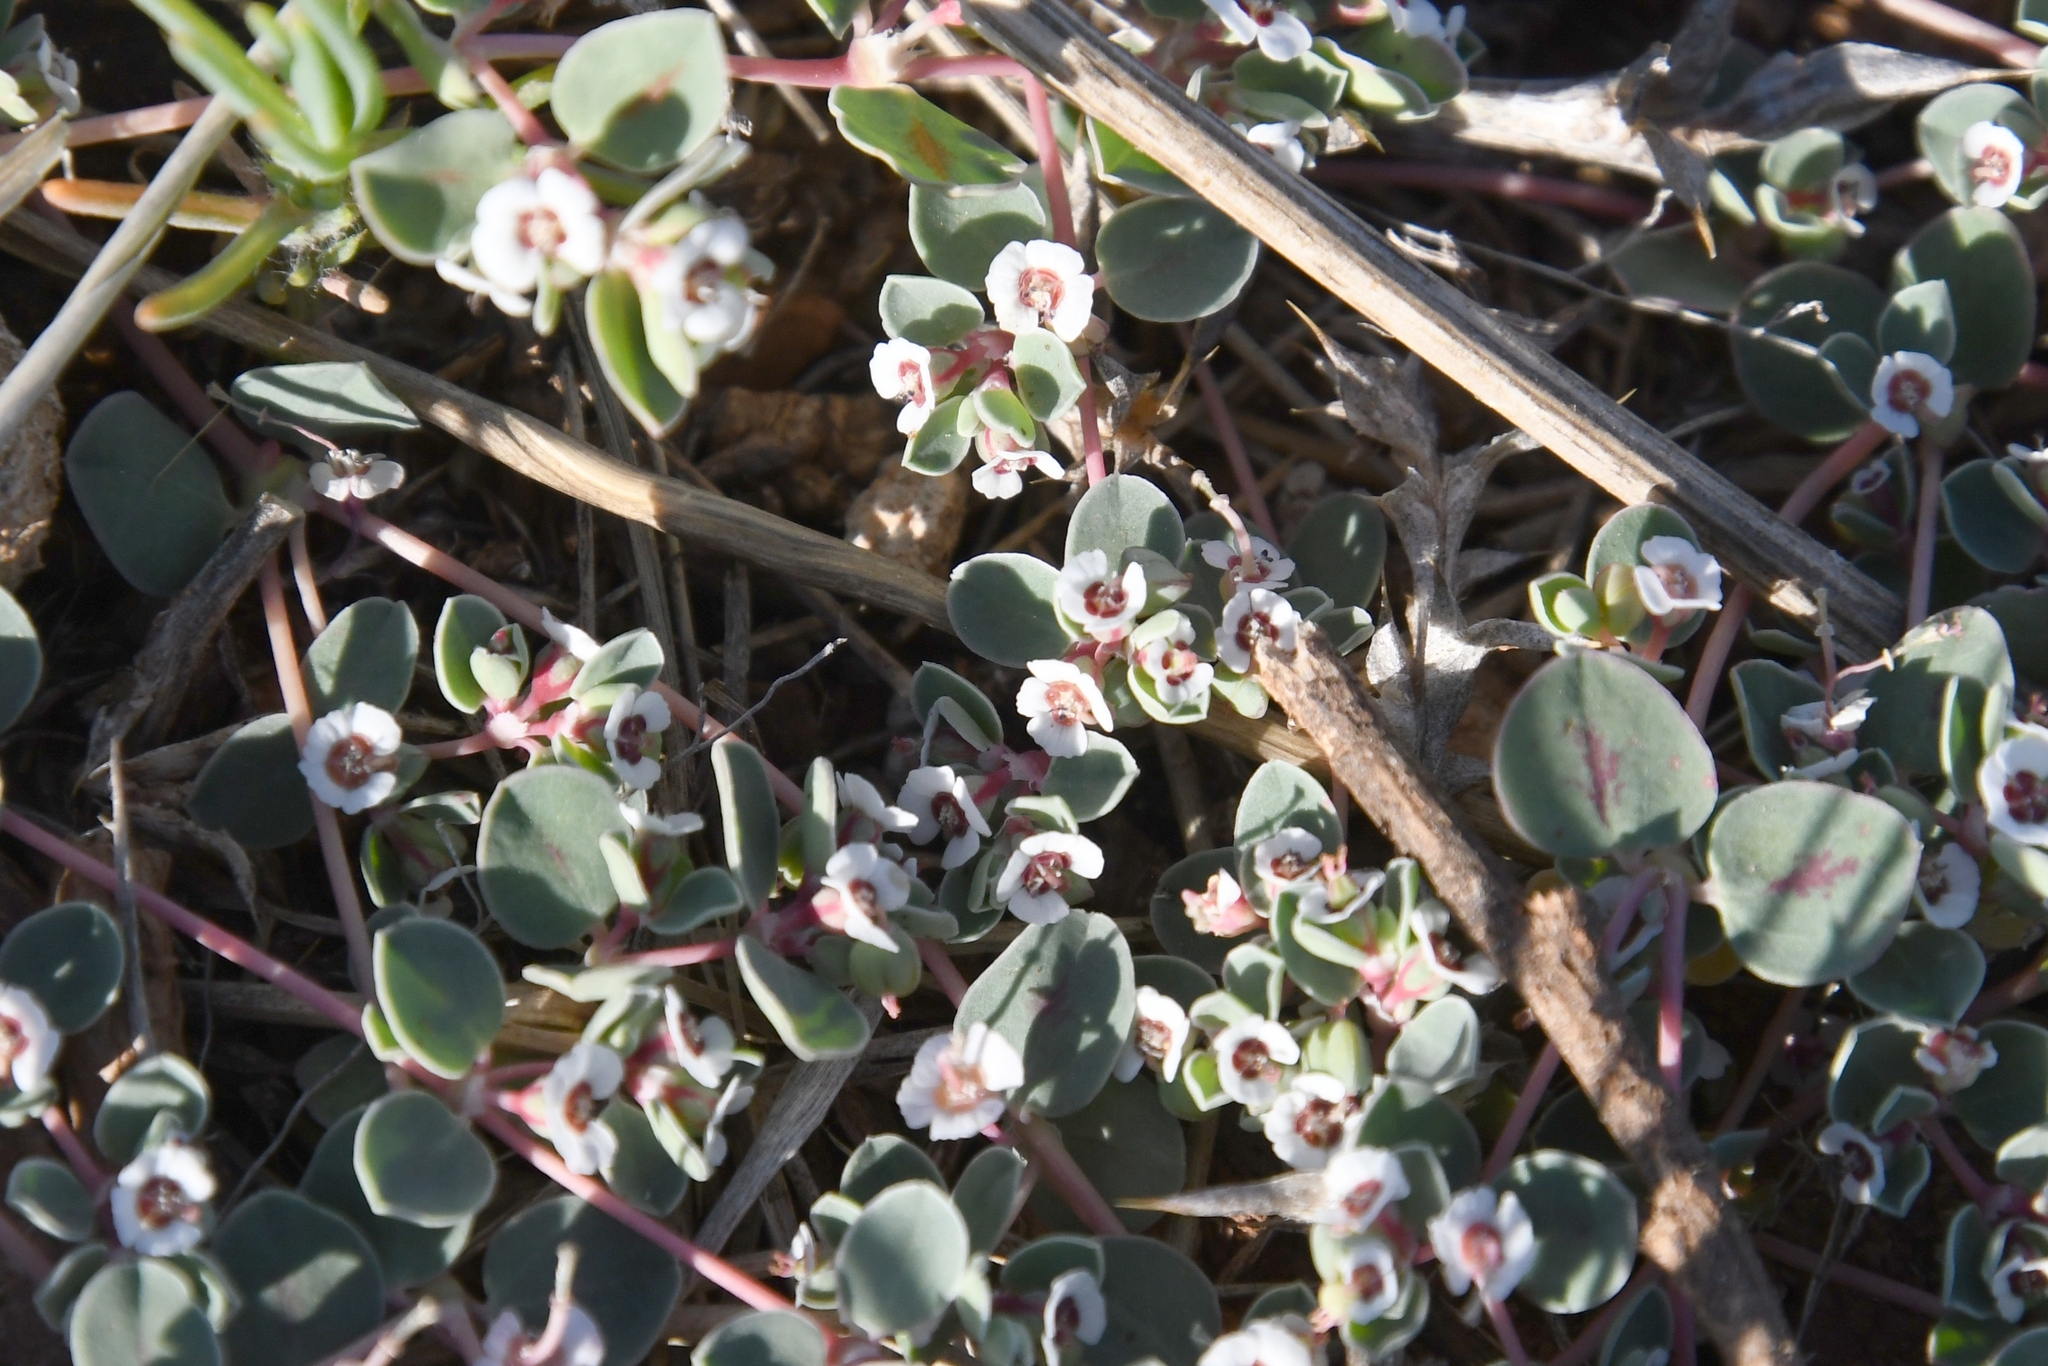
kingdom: Plantae
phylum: Tracheophyta
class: Magnoliopsida
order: Malpighiales
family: Euphorbiaceae
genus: Euphorbia
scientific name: Euphorbia albomarginata
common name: Whitemargin sandmat
